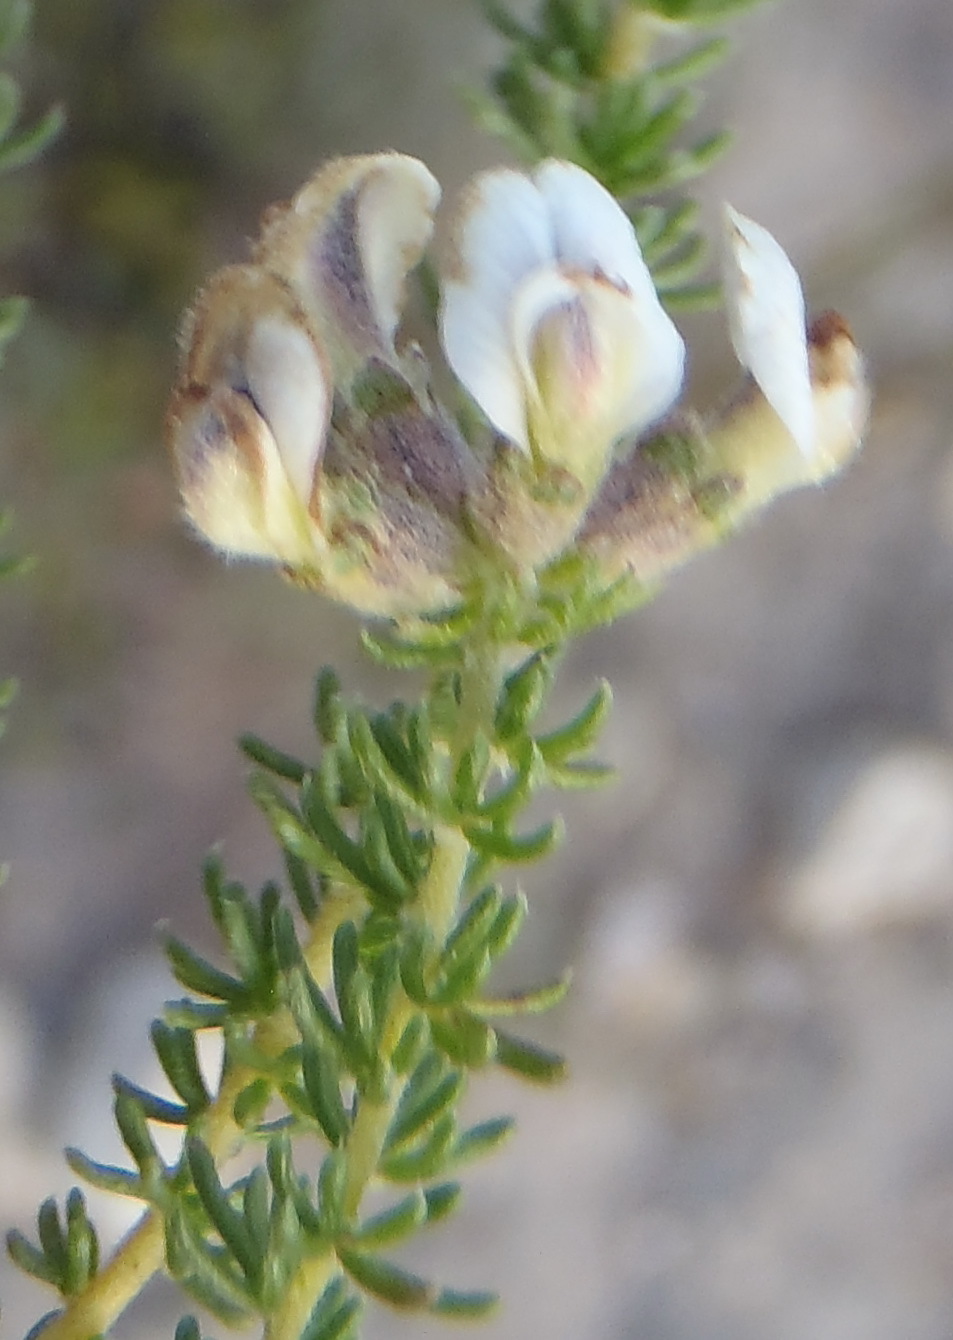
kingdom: Plantae
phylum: Tracheophyta
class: Magnoliopsida
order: Fabales
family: Fabaceae
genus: Aspalathus
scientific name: Aspalathus nigra
